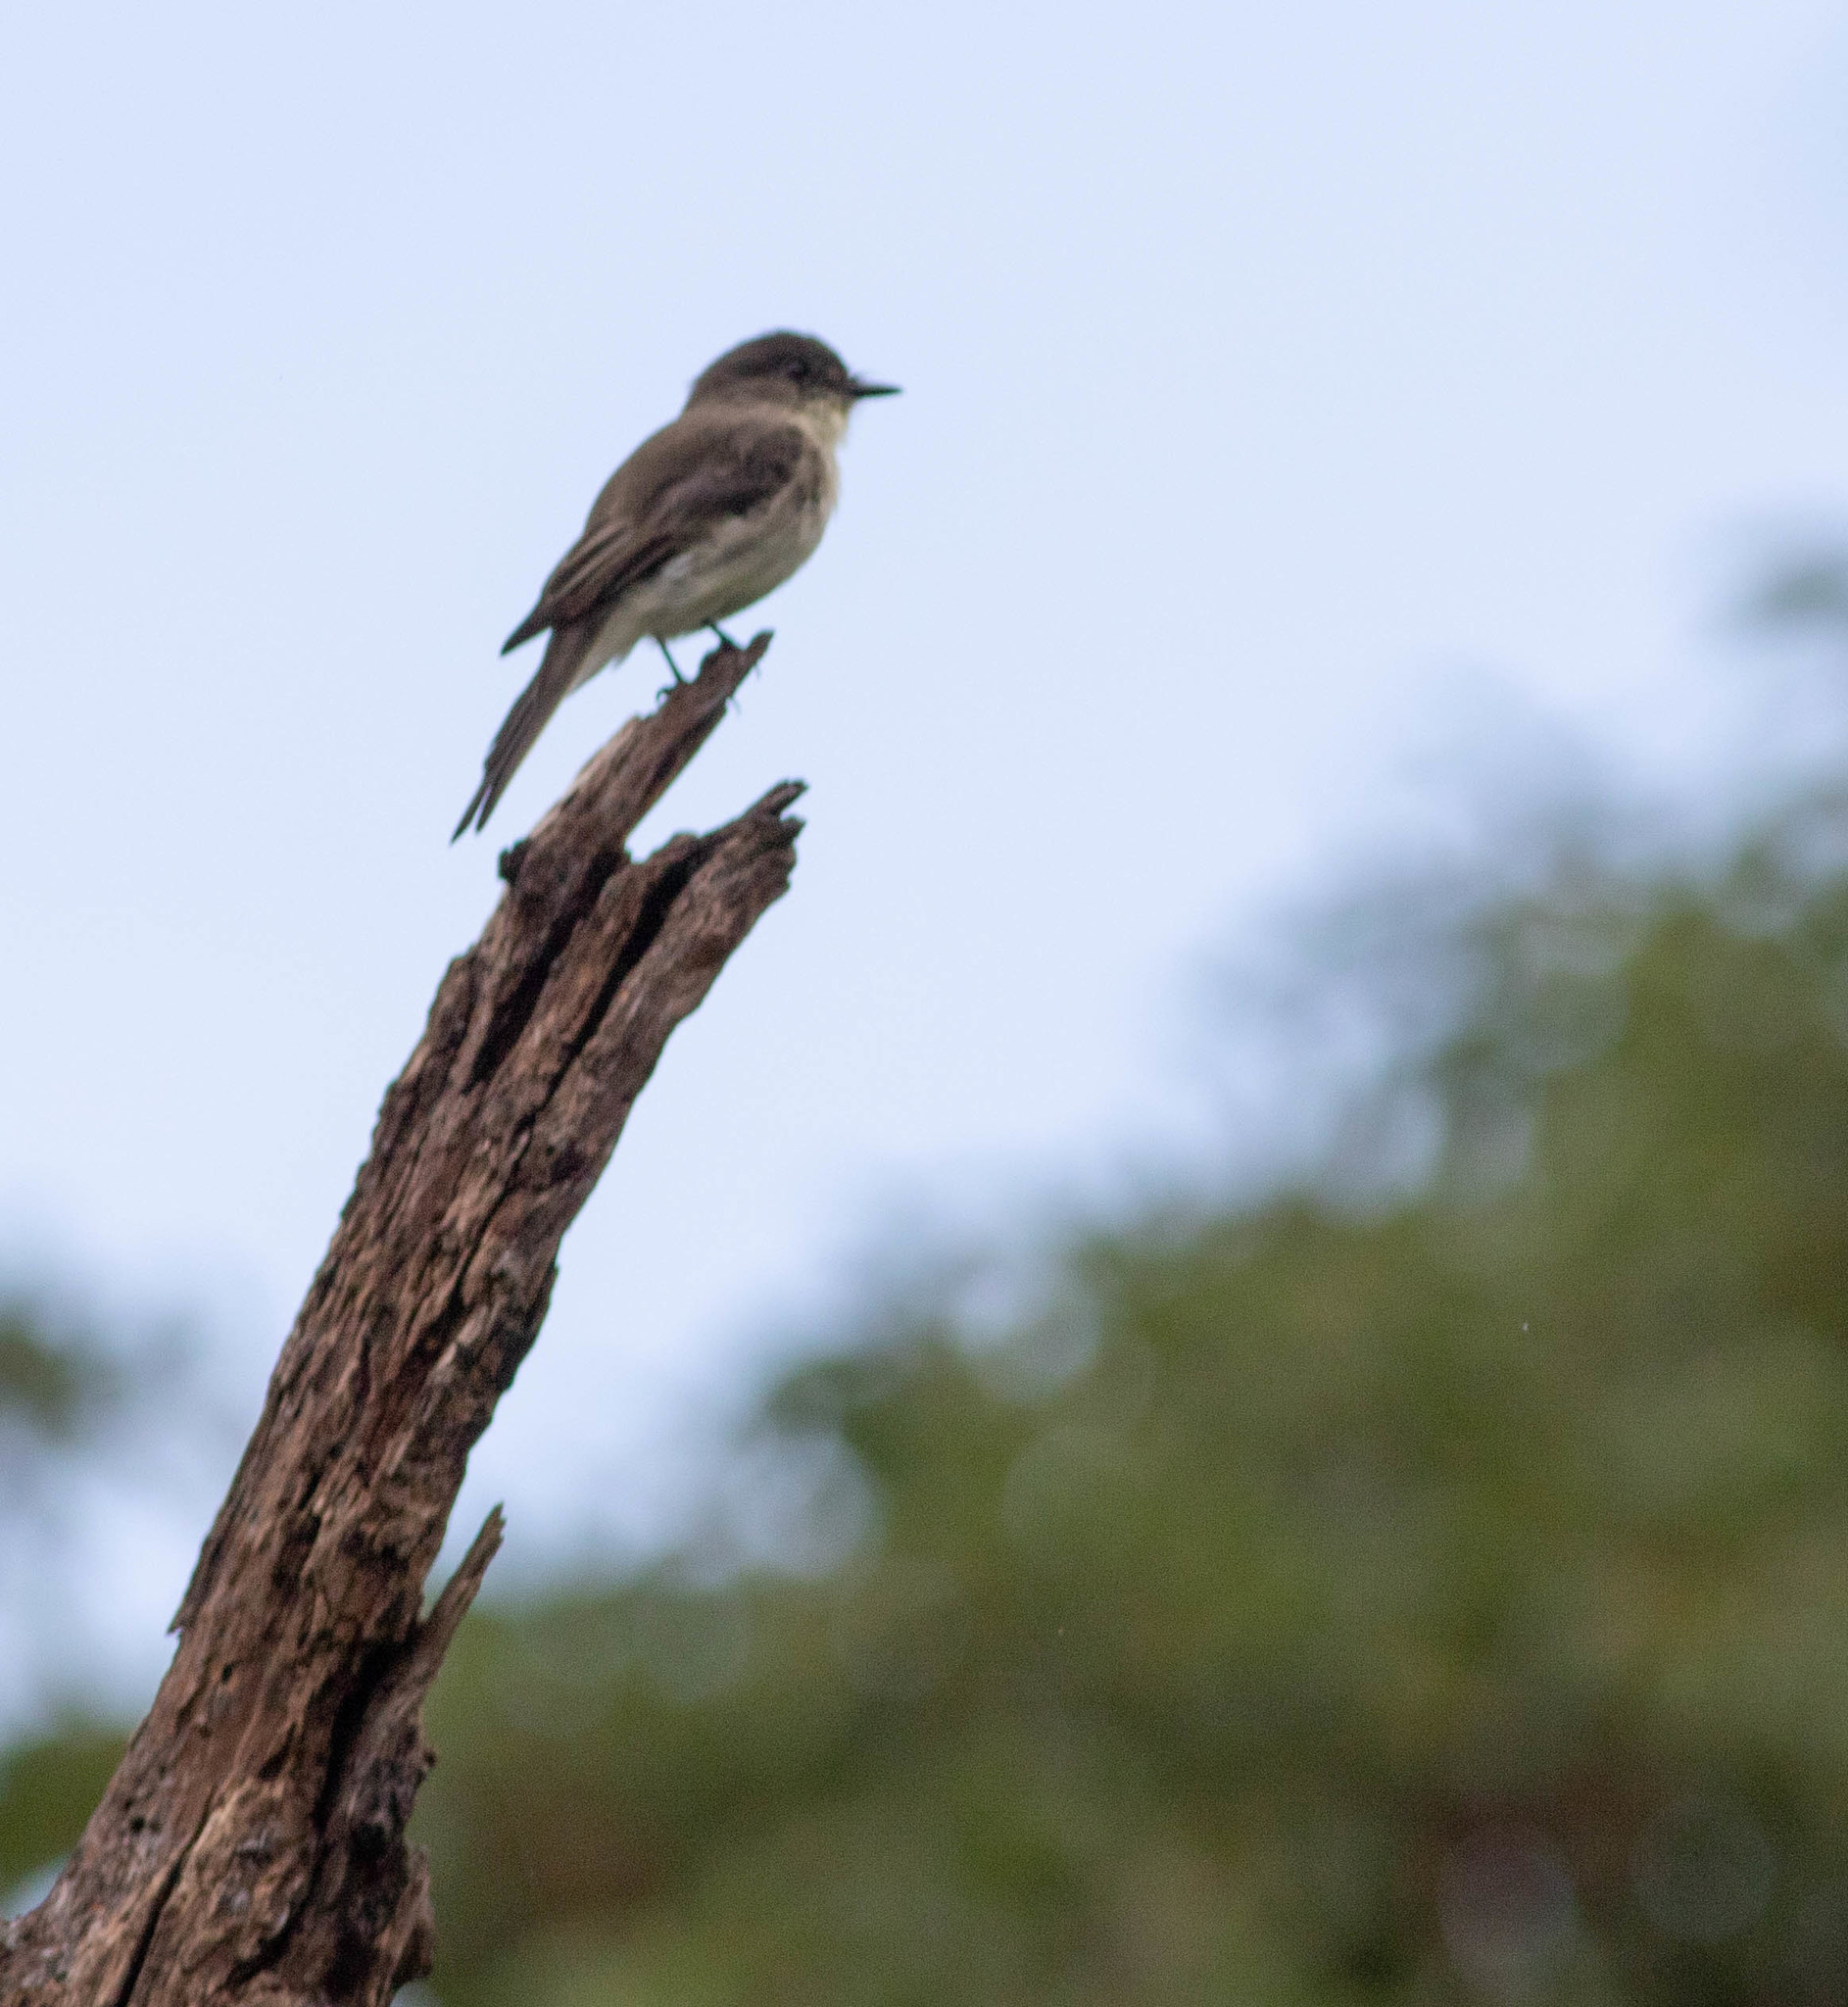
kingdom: Animalia
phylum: Chordata
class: Aves
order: Passeriformes
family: Tyrannidae
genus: Sayornis
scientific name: Sayornis phoebe
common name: Eastern phoebe
